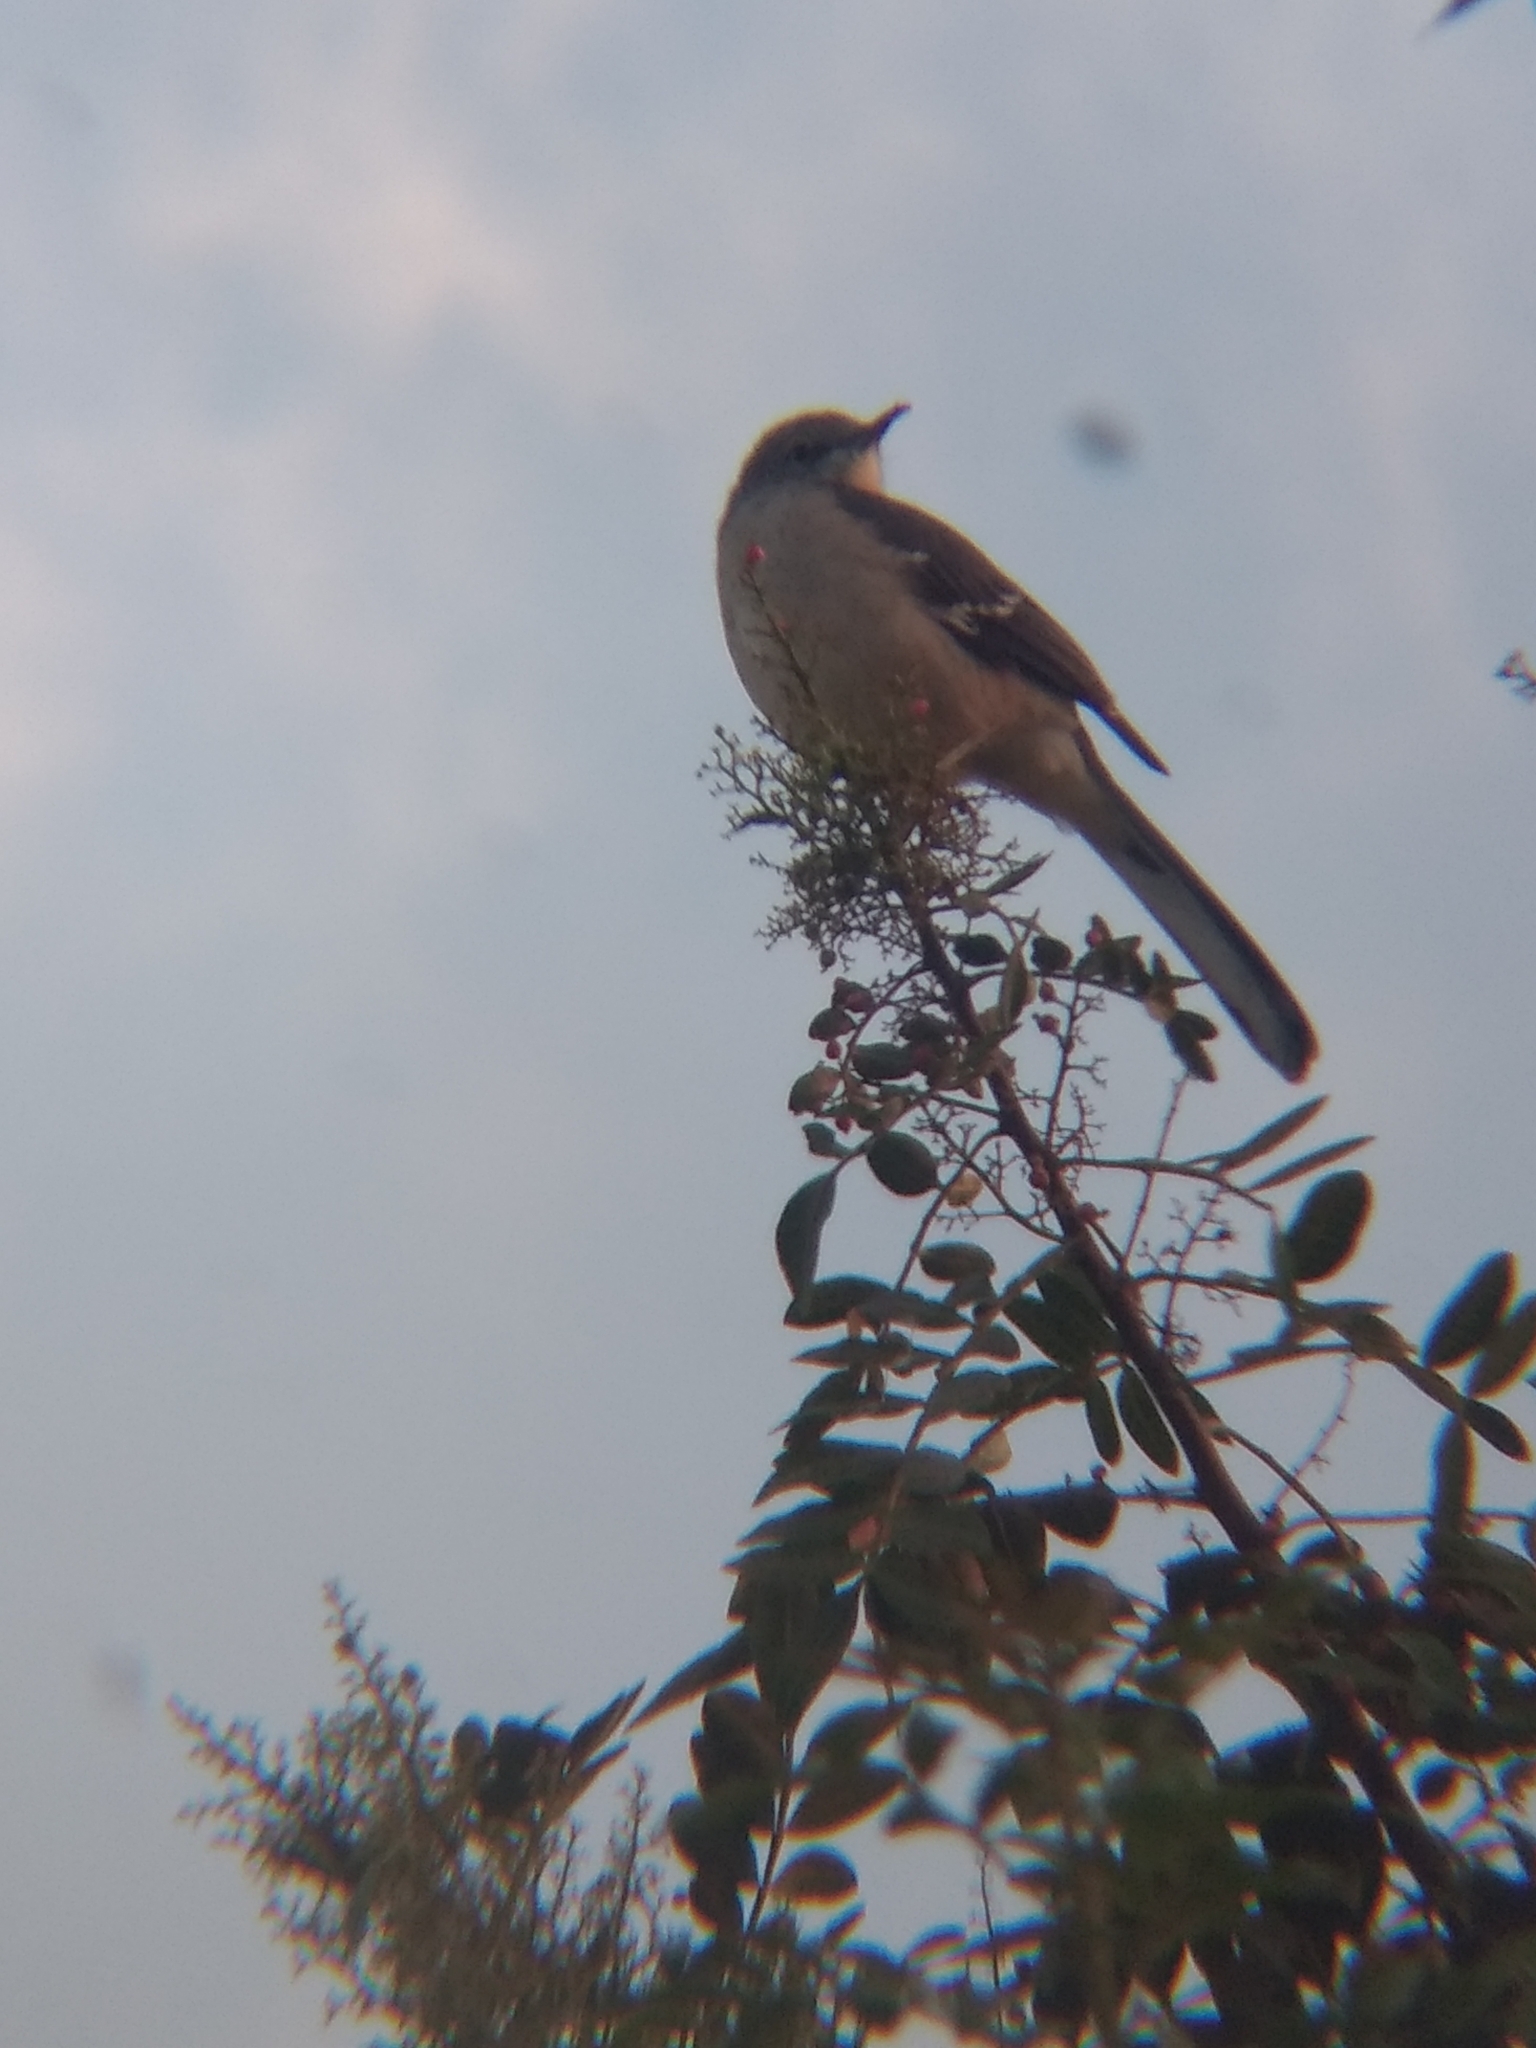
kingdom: Animalia
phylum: Chordata
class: Aves
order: Passeriformes
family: Mimidae
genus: Mimus
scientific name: Mimus polyglottos
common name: Northern mockingbird
